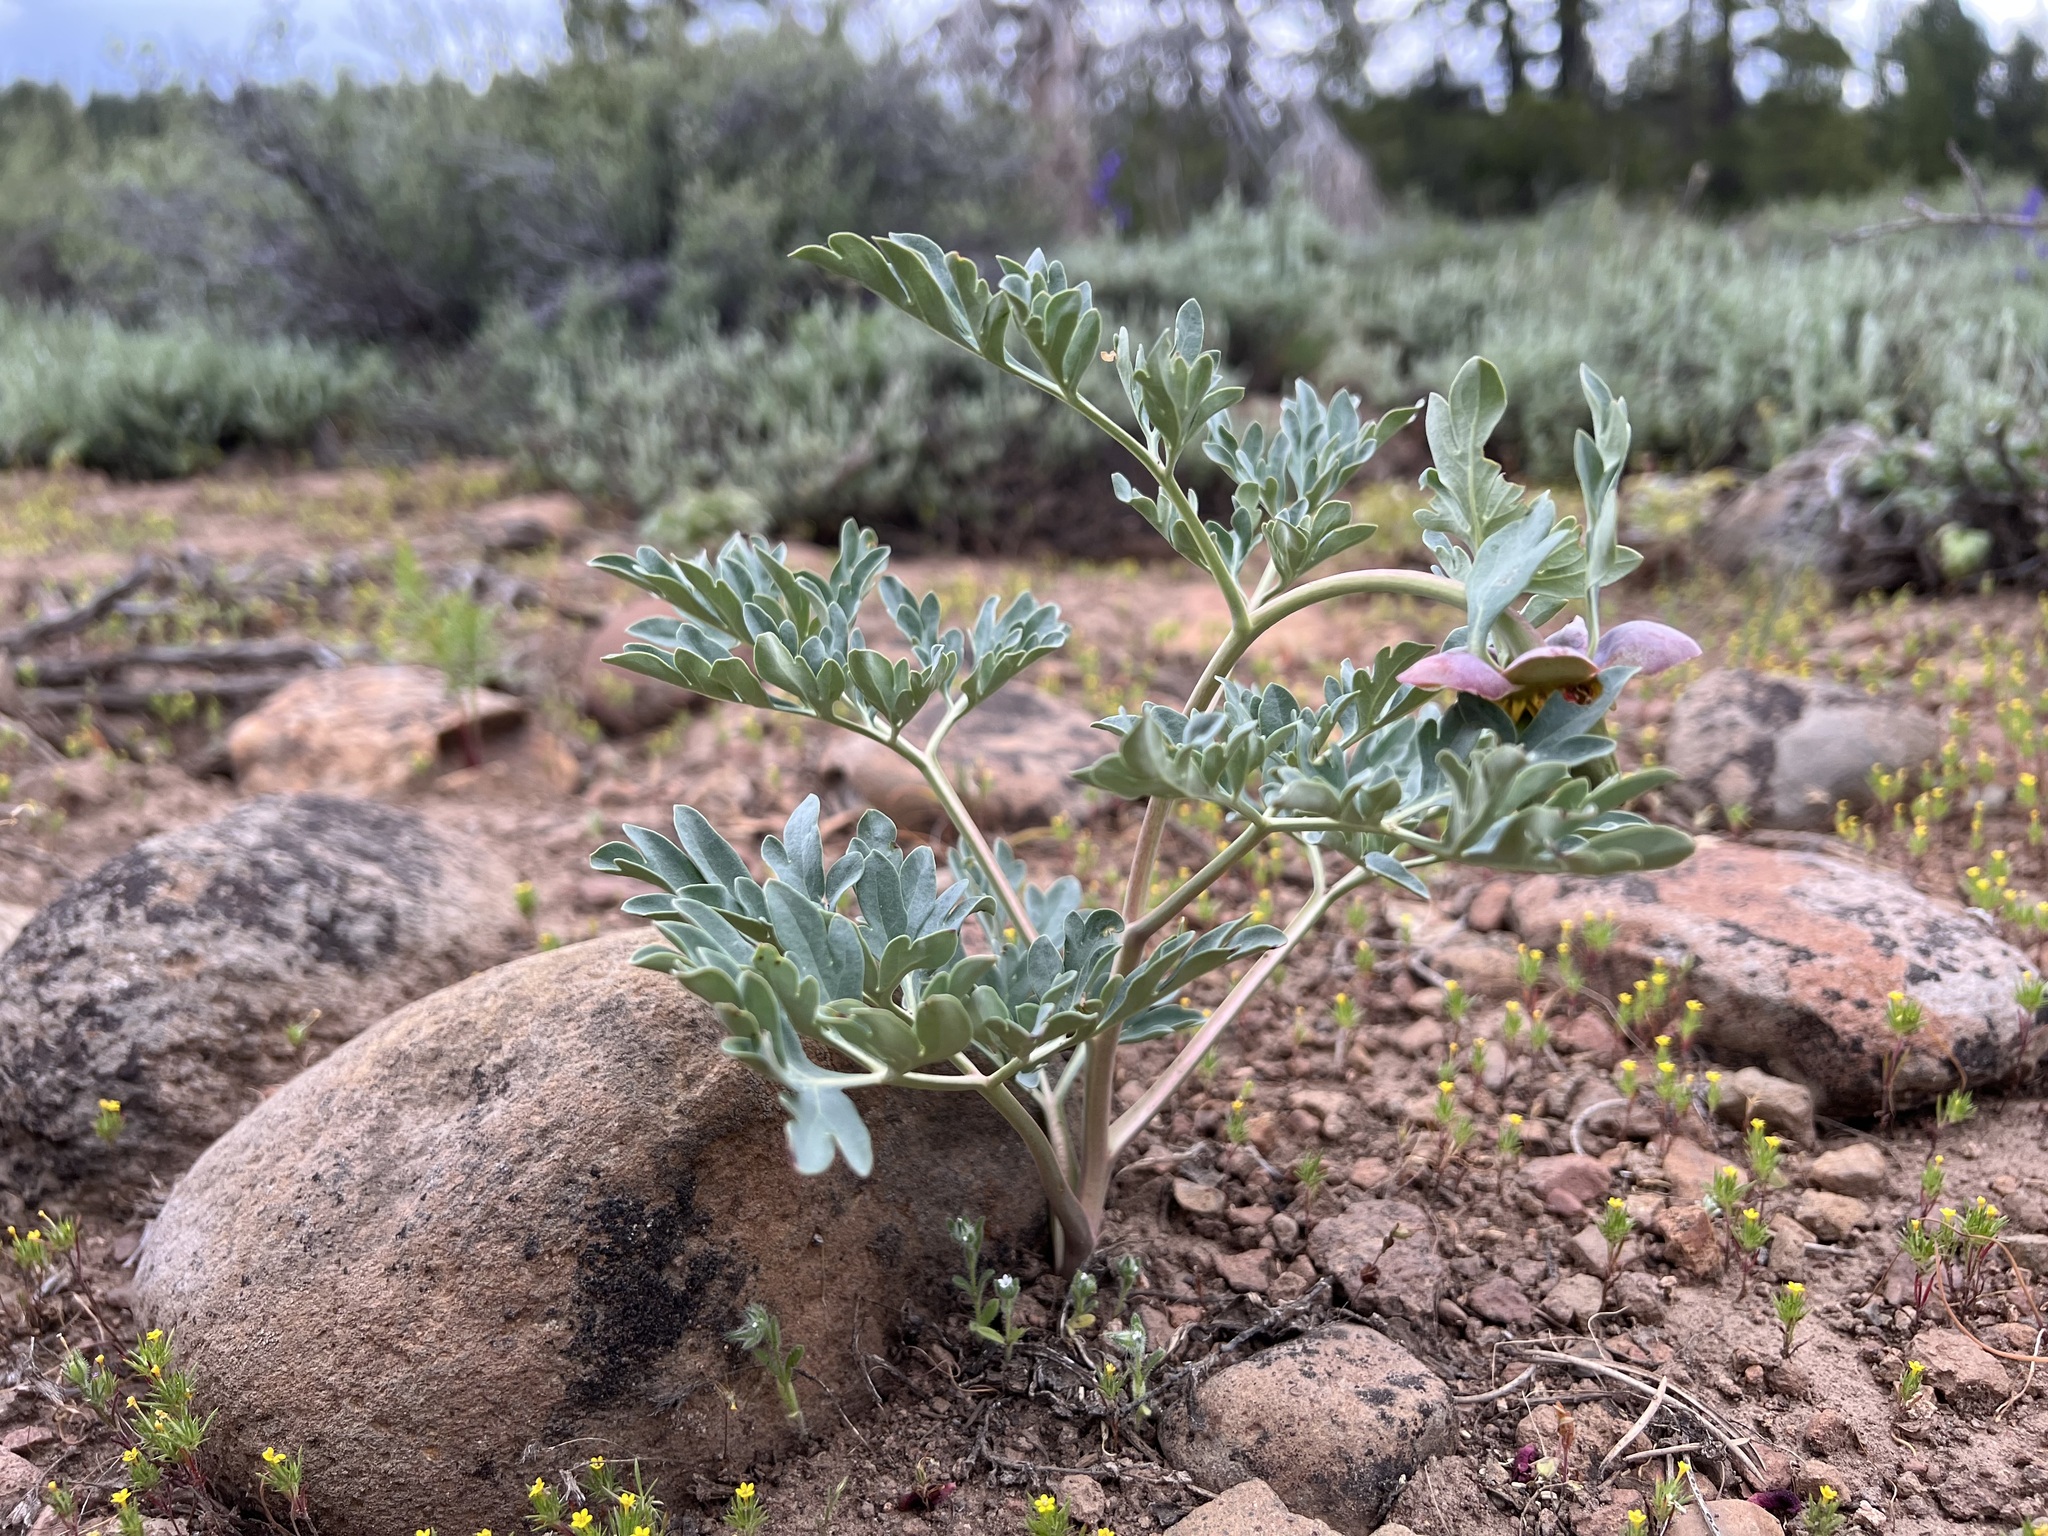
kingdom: Plantae
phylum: Tracheophyta
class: Magnoliopsida
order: Saxifragales
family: Paeoniaceae
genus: Paeonia
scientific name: Paeonia brownii
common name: Brown's peony
